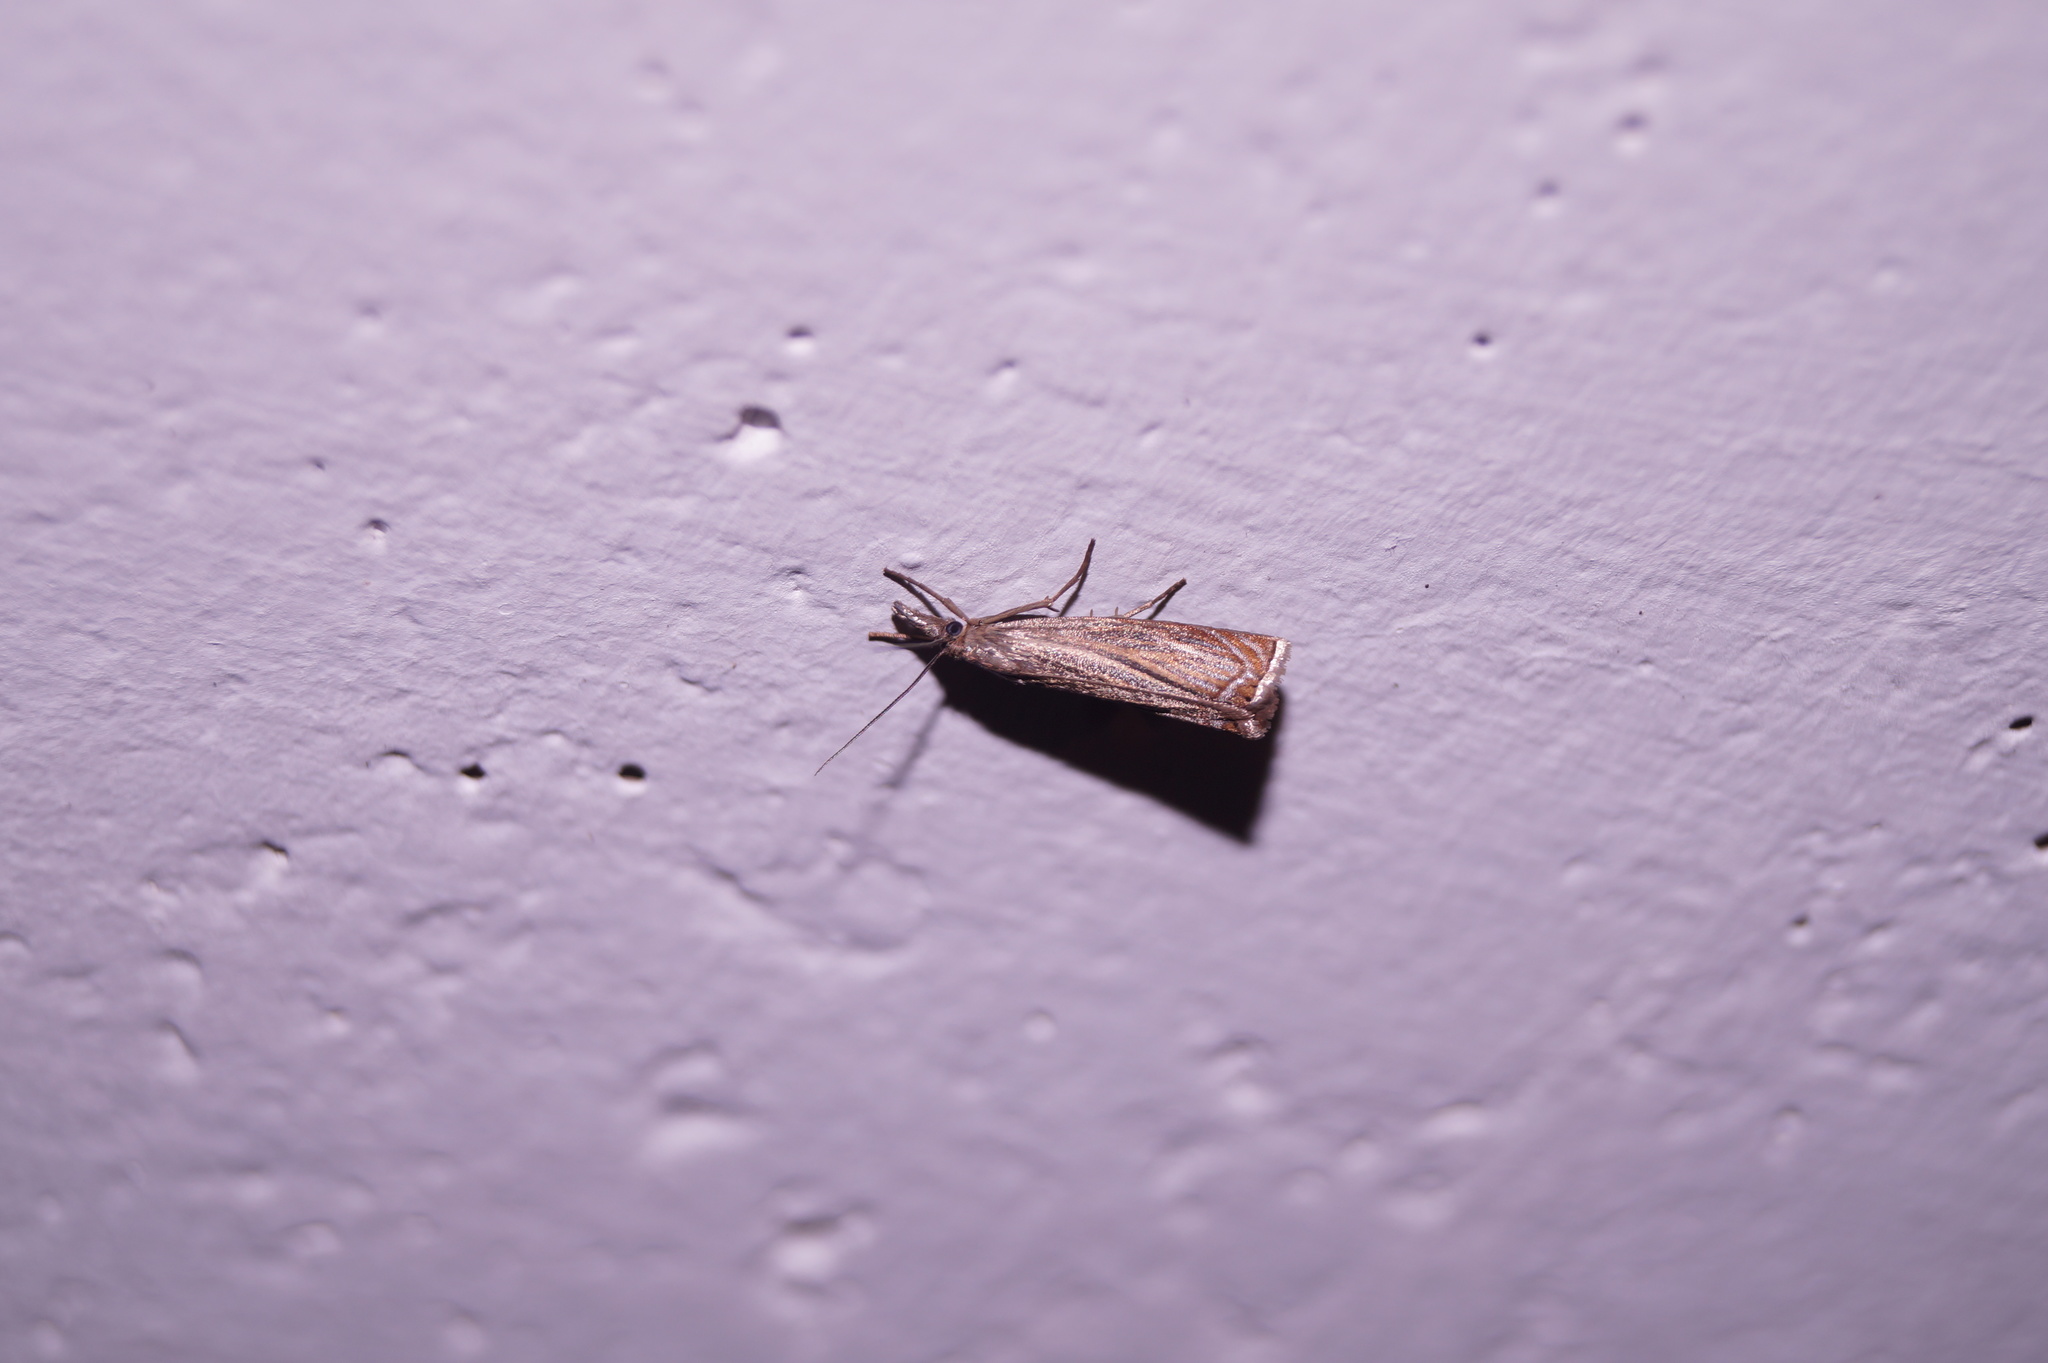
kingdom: Animalia
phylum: Arthropoda
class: Insecta
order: Lepidoptera
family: Crambidae
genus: Chrysoteuchia
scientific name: Chrysoteuchia culmella
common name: Garden grass-veneer
